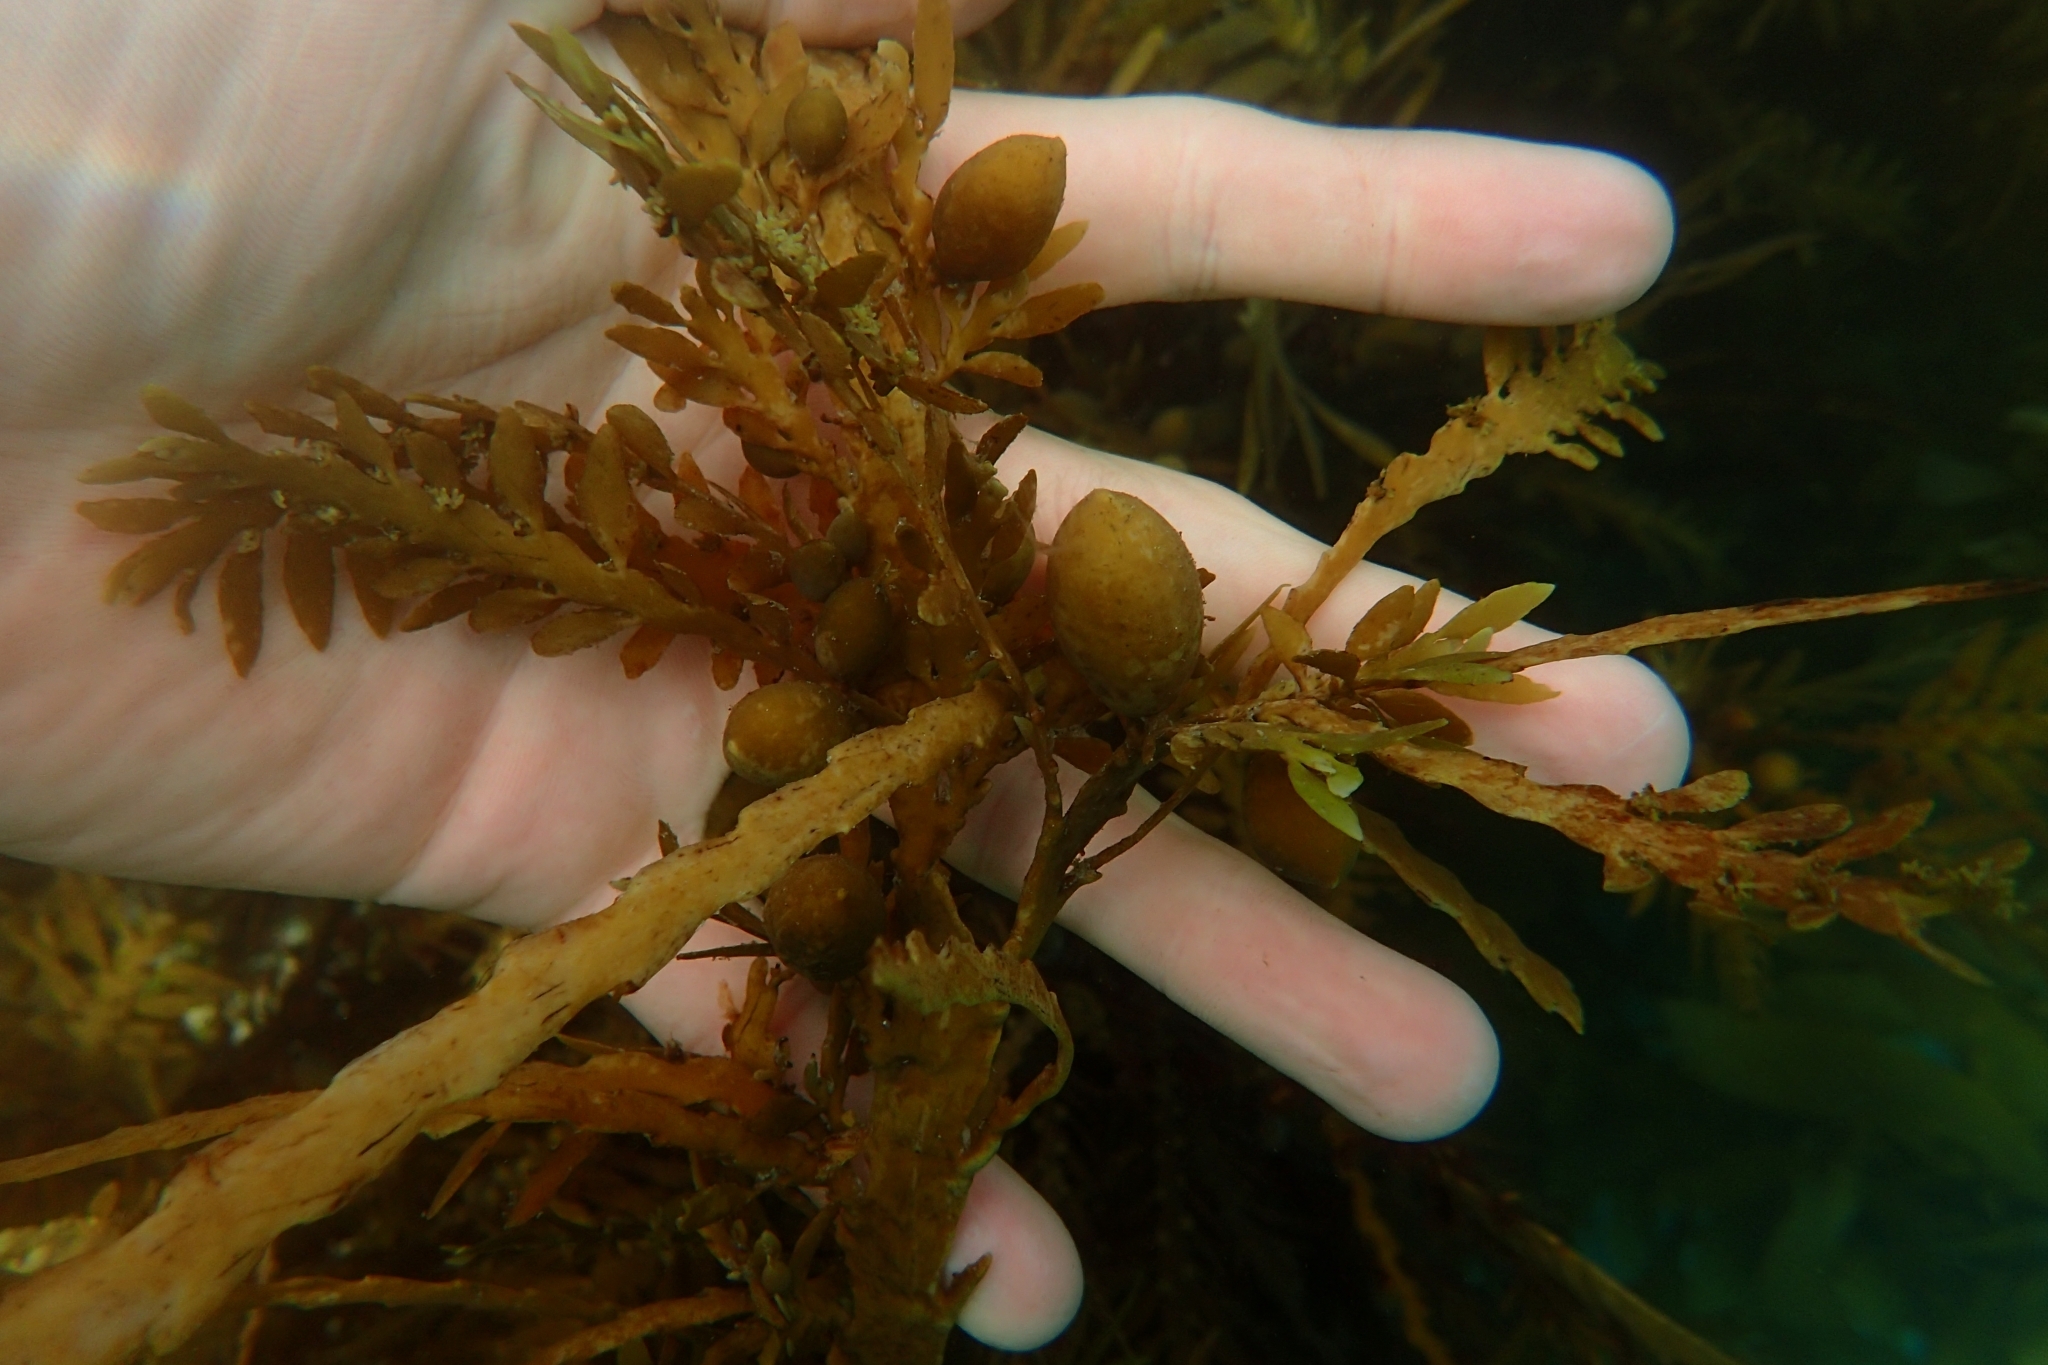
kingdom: Chromista
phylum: Ochrophyta
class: Phaeophyceae
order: Fucales
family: Sargassaceae
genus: Carpophyllum
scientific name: Carpophyllum maschalocarpum
